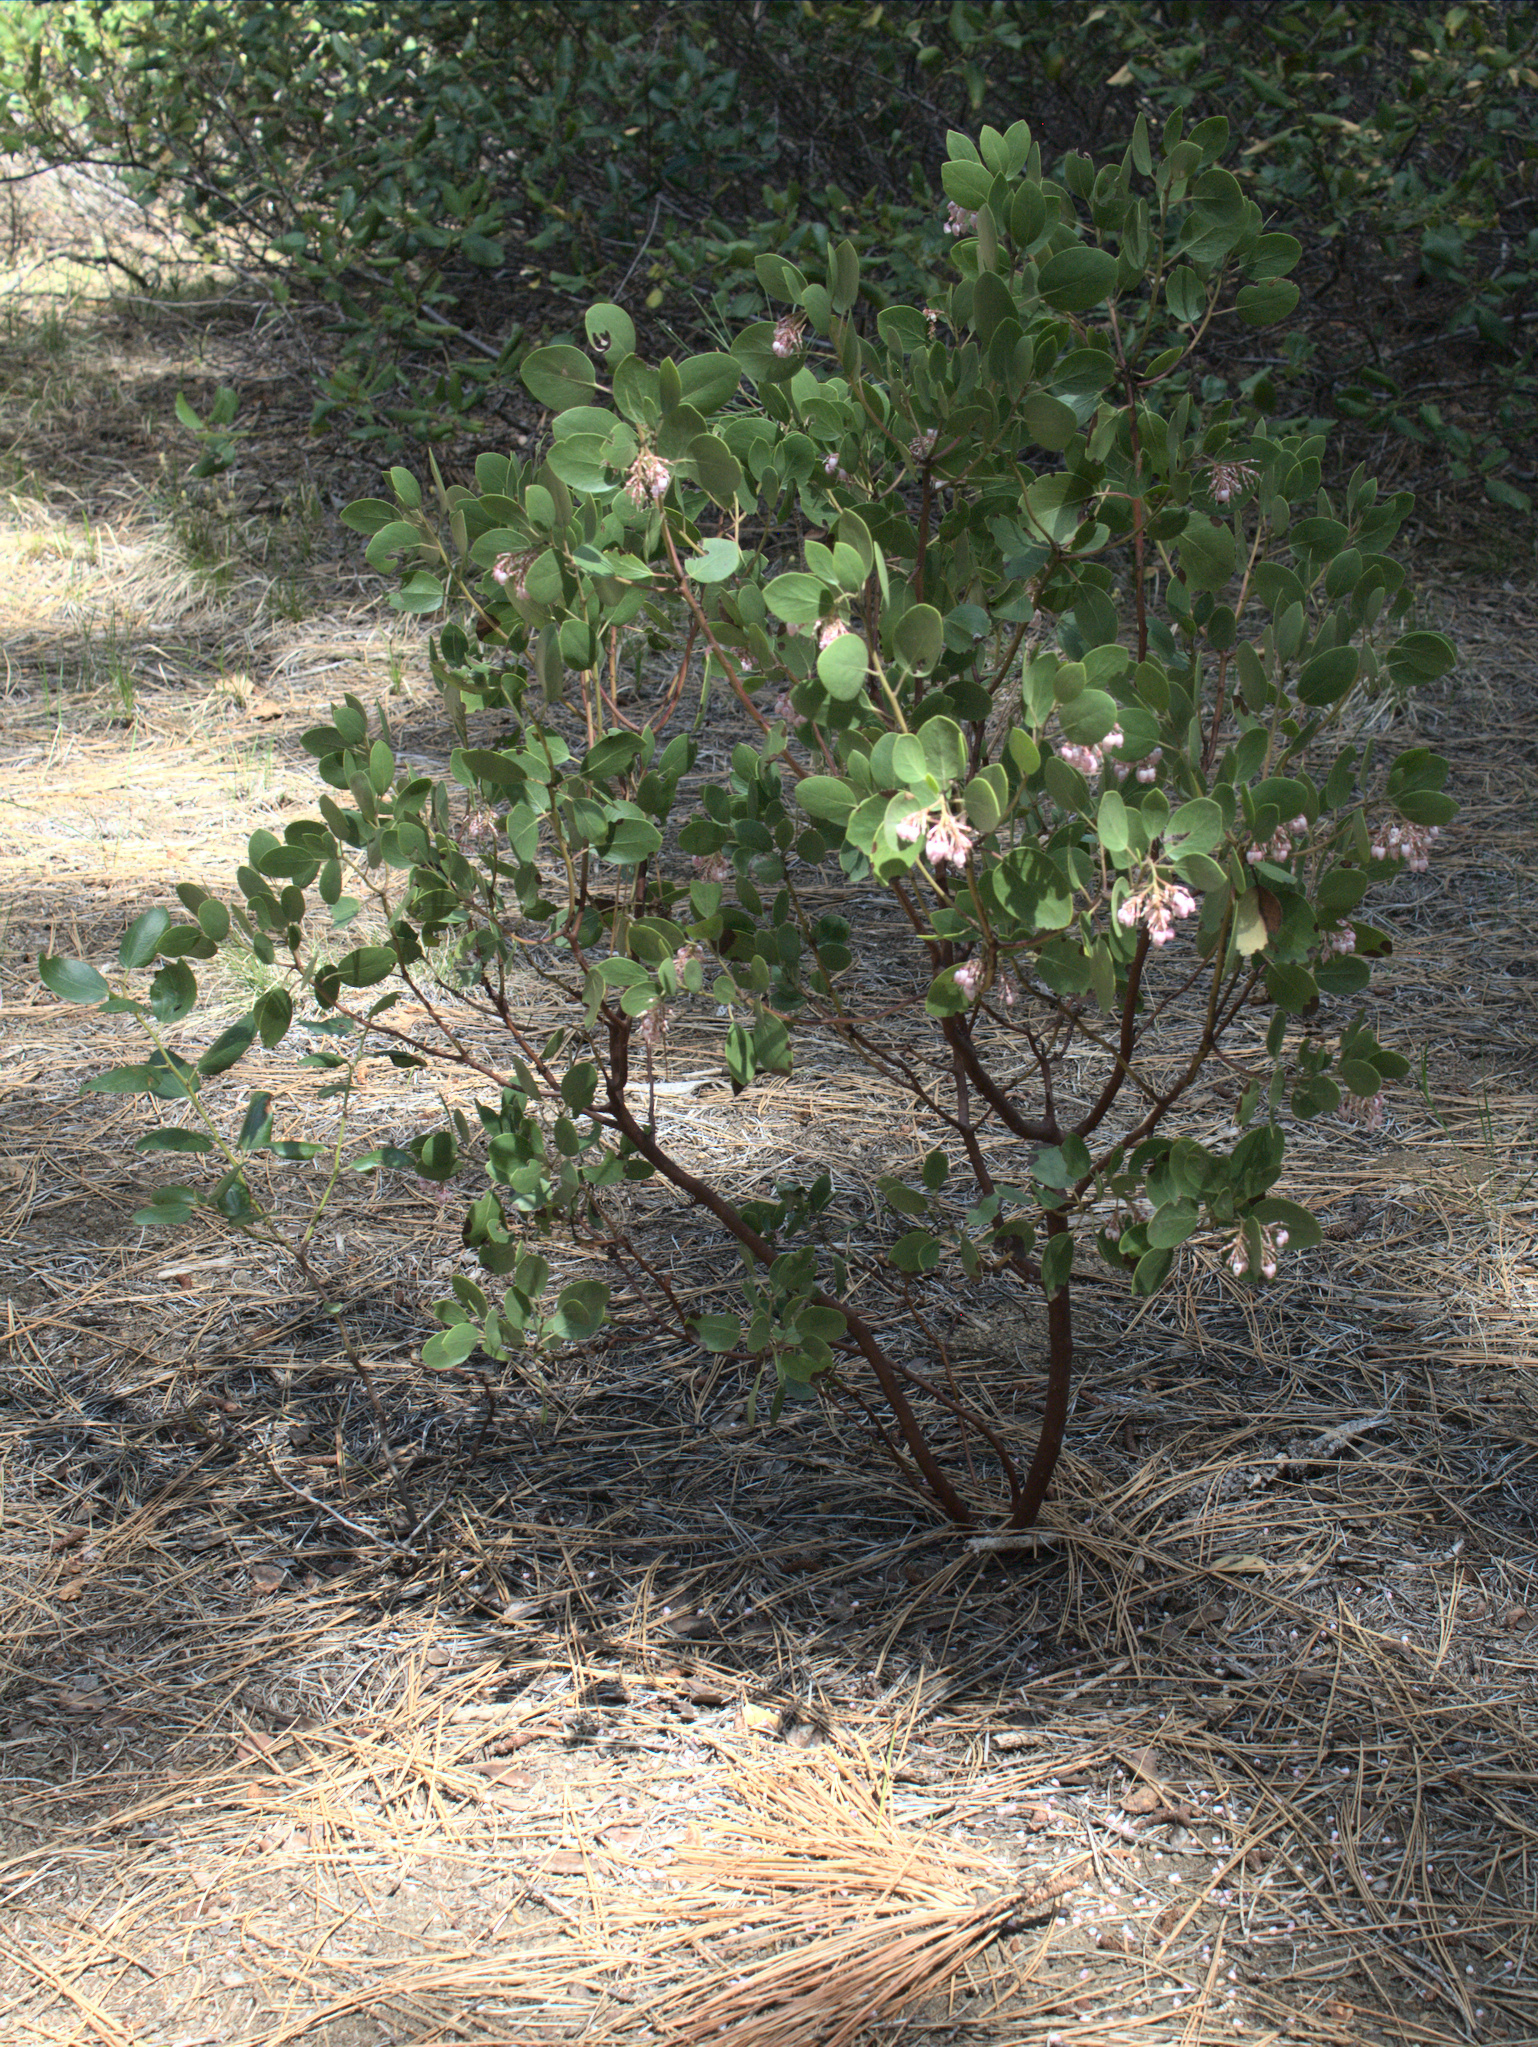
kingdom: Plantae
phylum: Tracheophyta
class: Magnoliopsida
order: Ericales
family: Ericaceae
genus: Arctostaphylos
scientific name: Arctostaphylos patula
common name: Green-leaf manzanita
